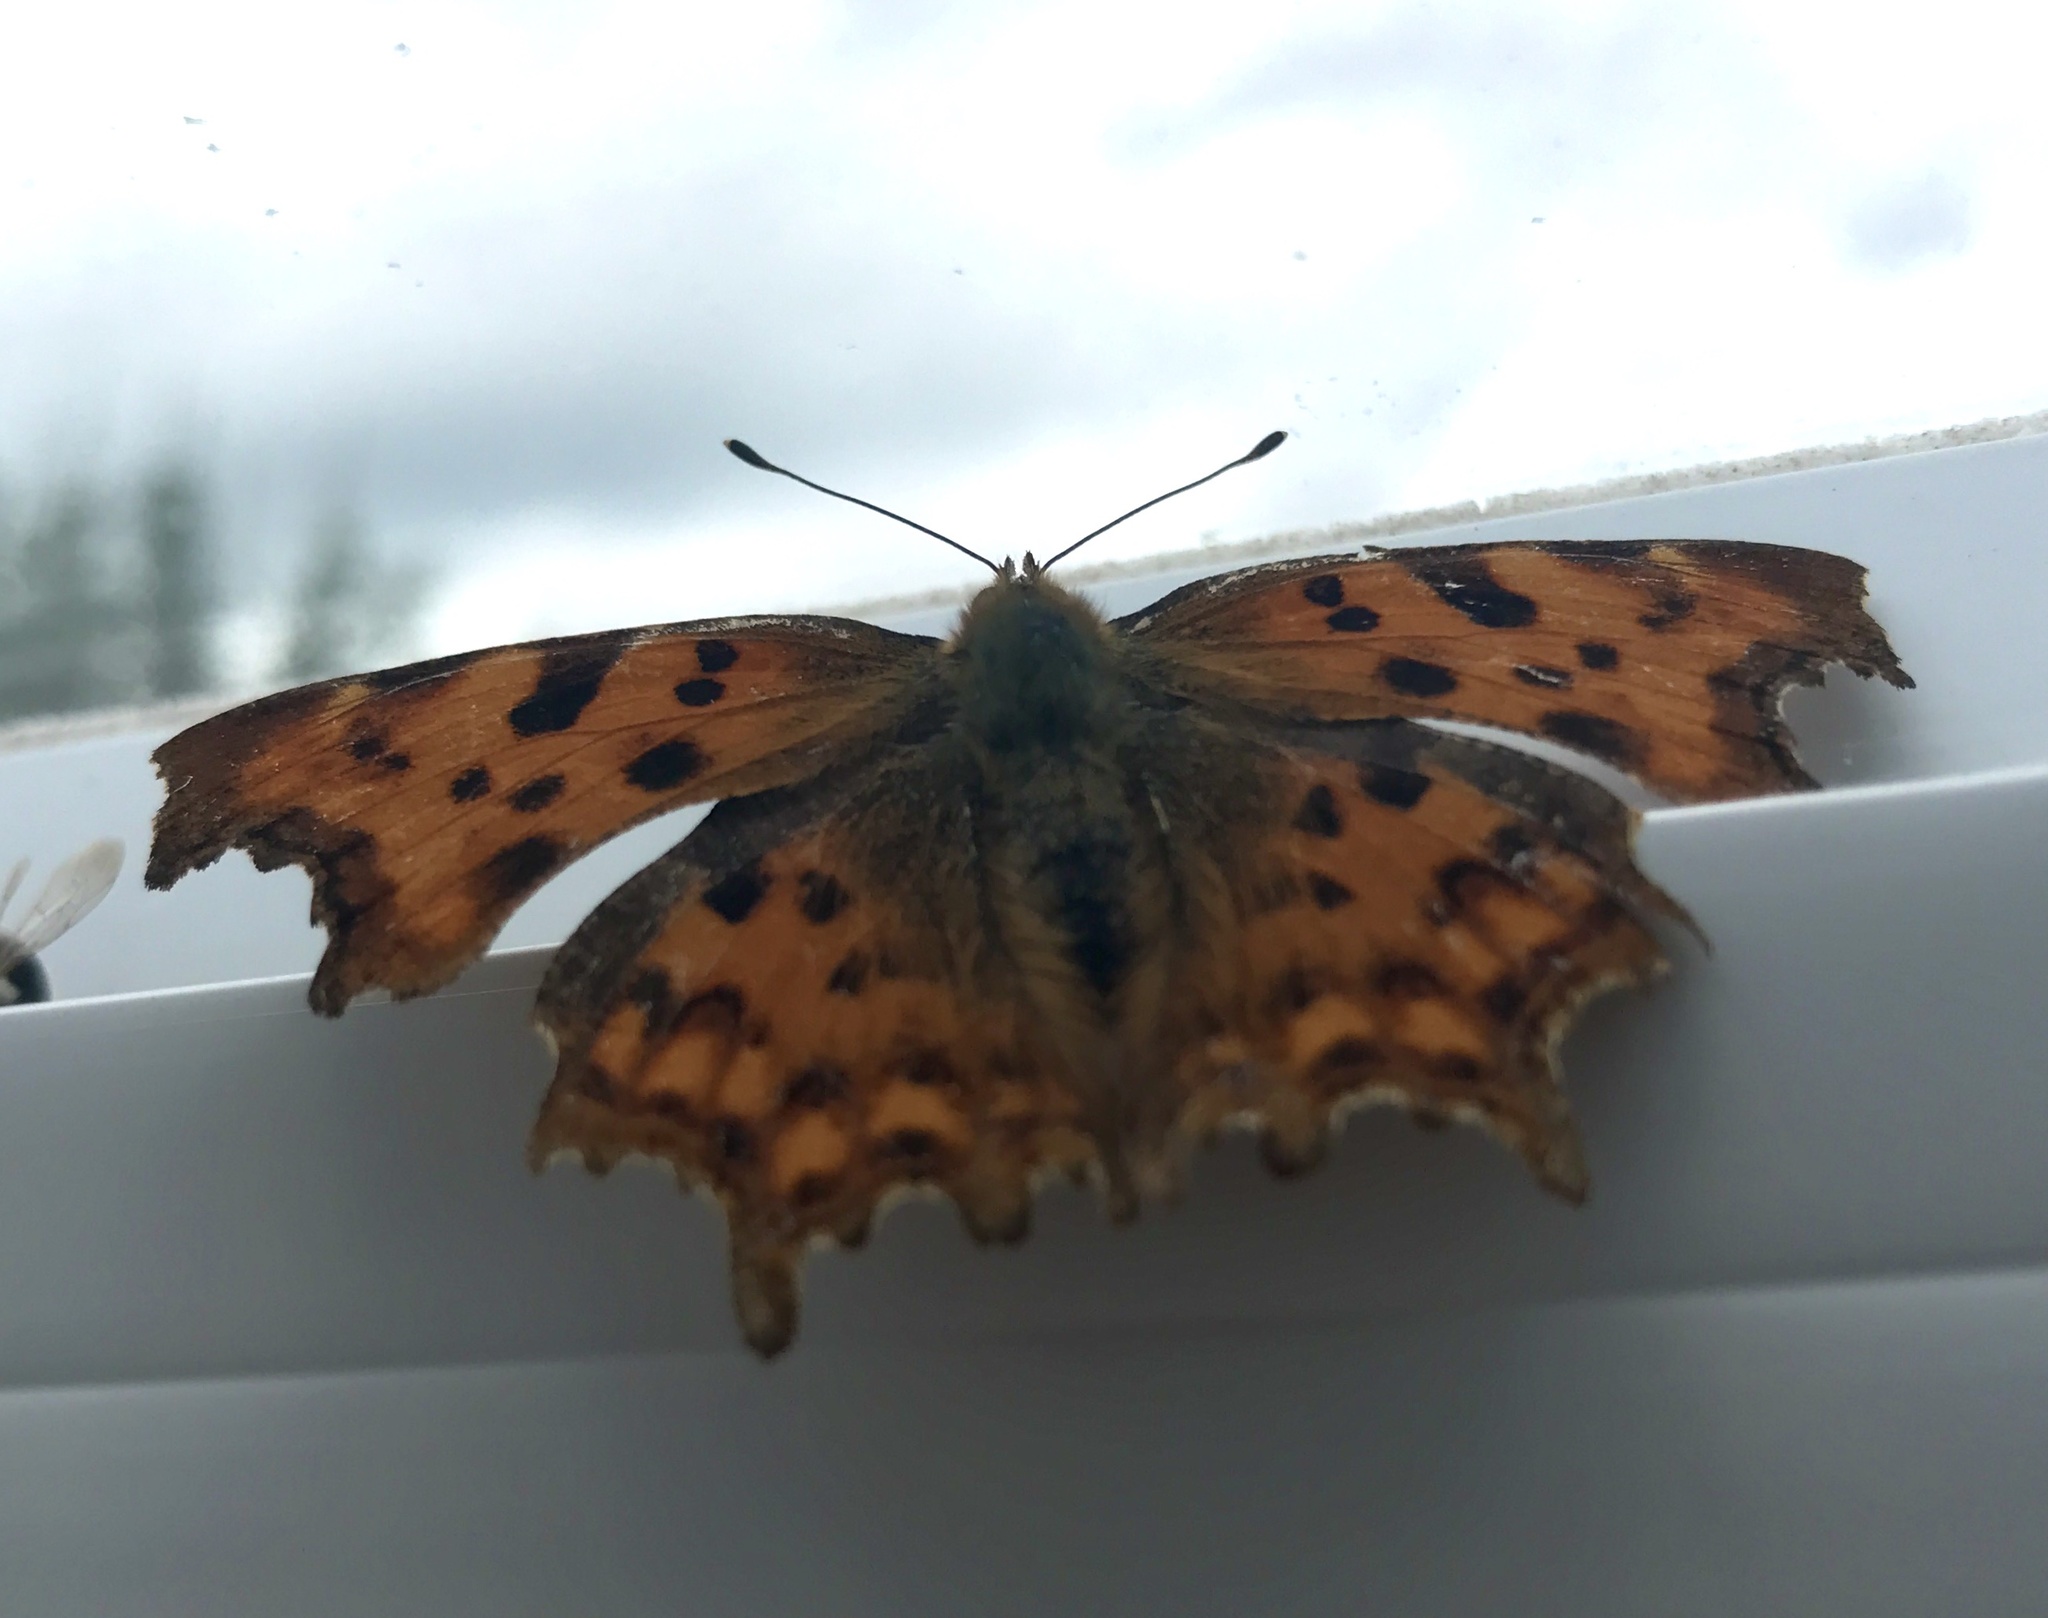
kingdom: Animalia
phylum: Arthropoda
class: Insecta
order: Lepidoptera
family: Nymphalidae
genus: Polygonia
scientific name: Polygonia c-album
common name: Comma
